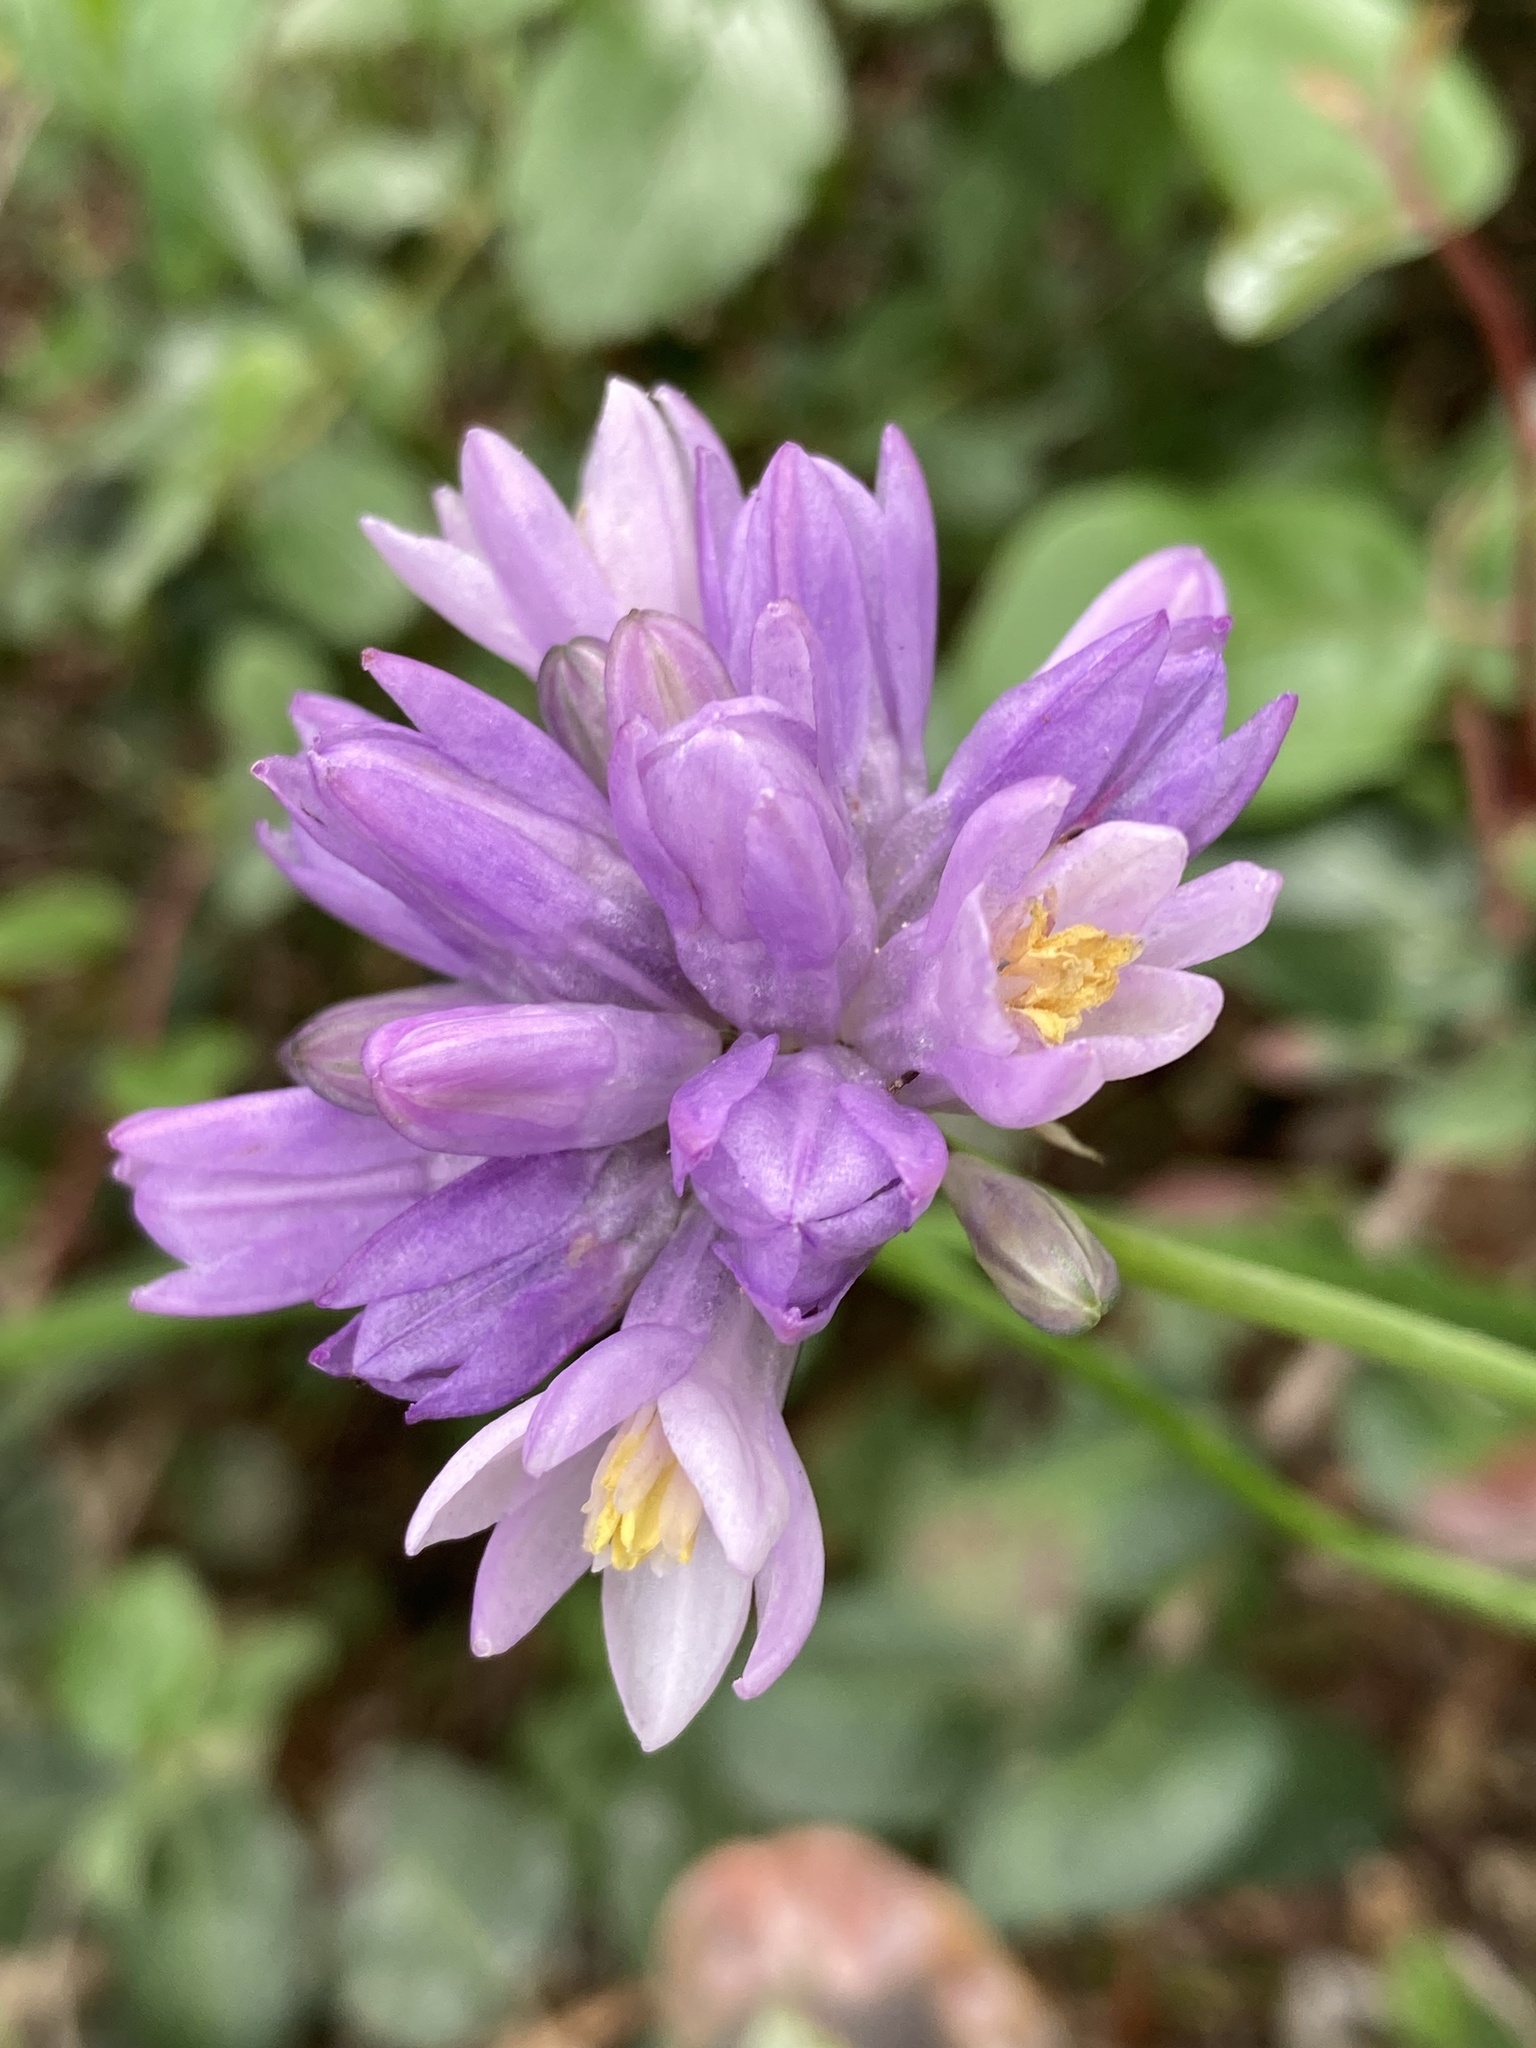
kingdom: Plantae
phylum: Tracheophyta
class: Liliopsida
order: Asparagales
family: Asparagaceae
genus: Dipterostemon
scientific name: Dipterostemon capitatus
